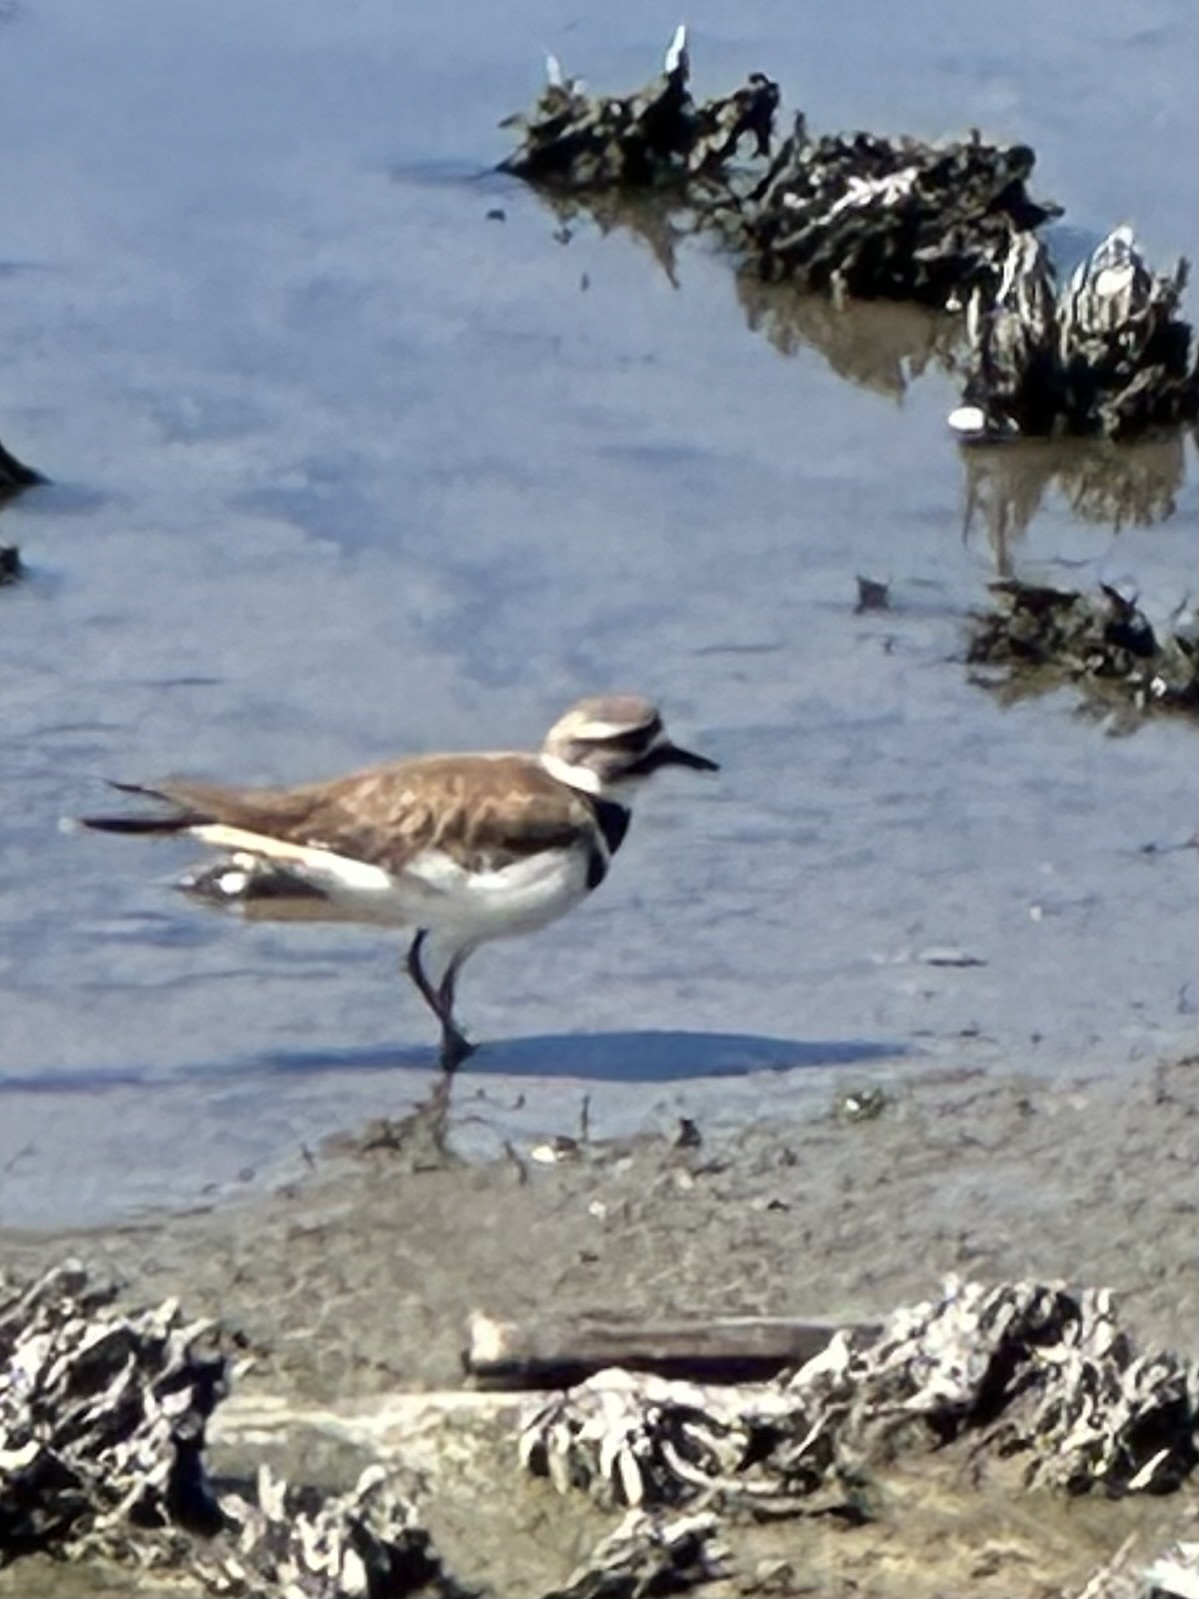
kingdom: Animalia
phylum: Chordata
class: Aves
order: Charadriiformes
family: Charadriidae
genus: Charadrius
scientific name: Charadrius vociferus
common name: Killdeer
